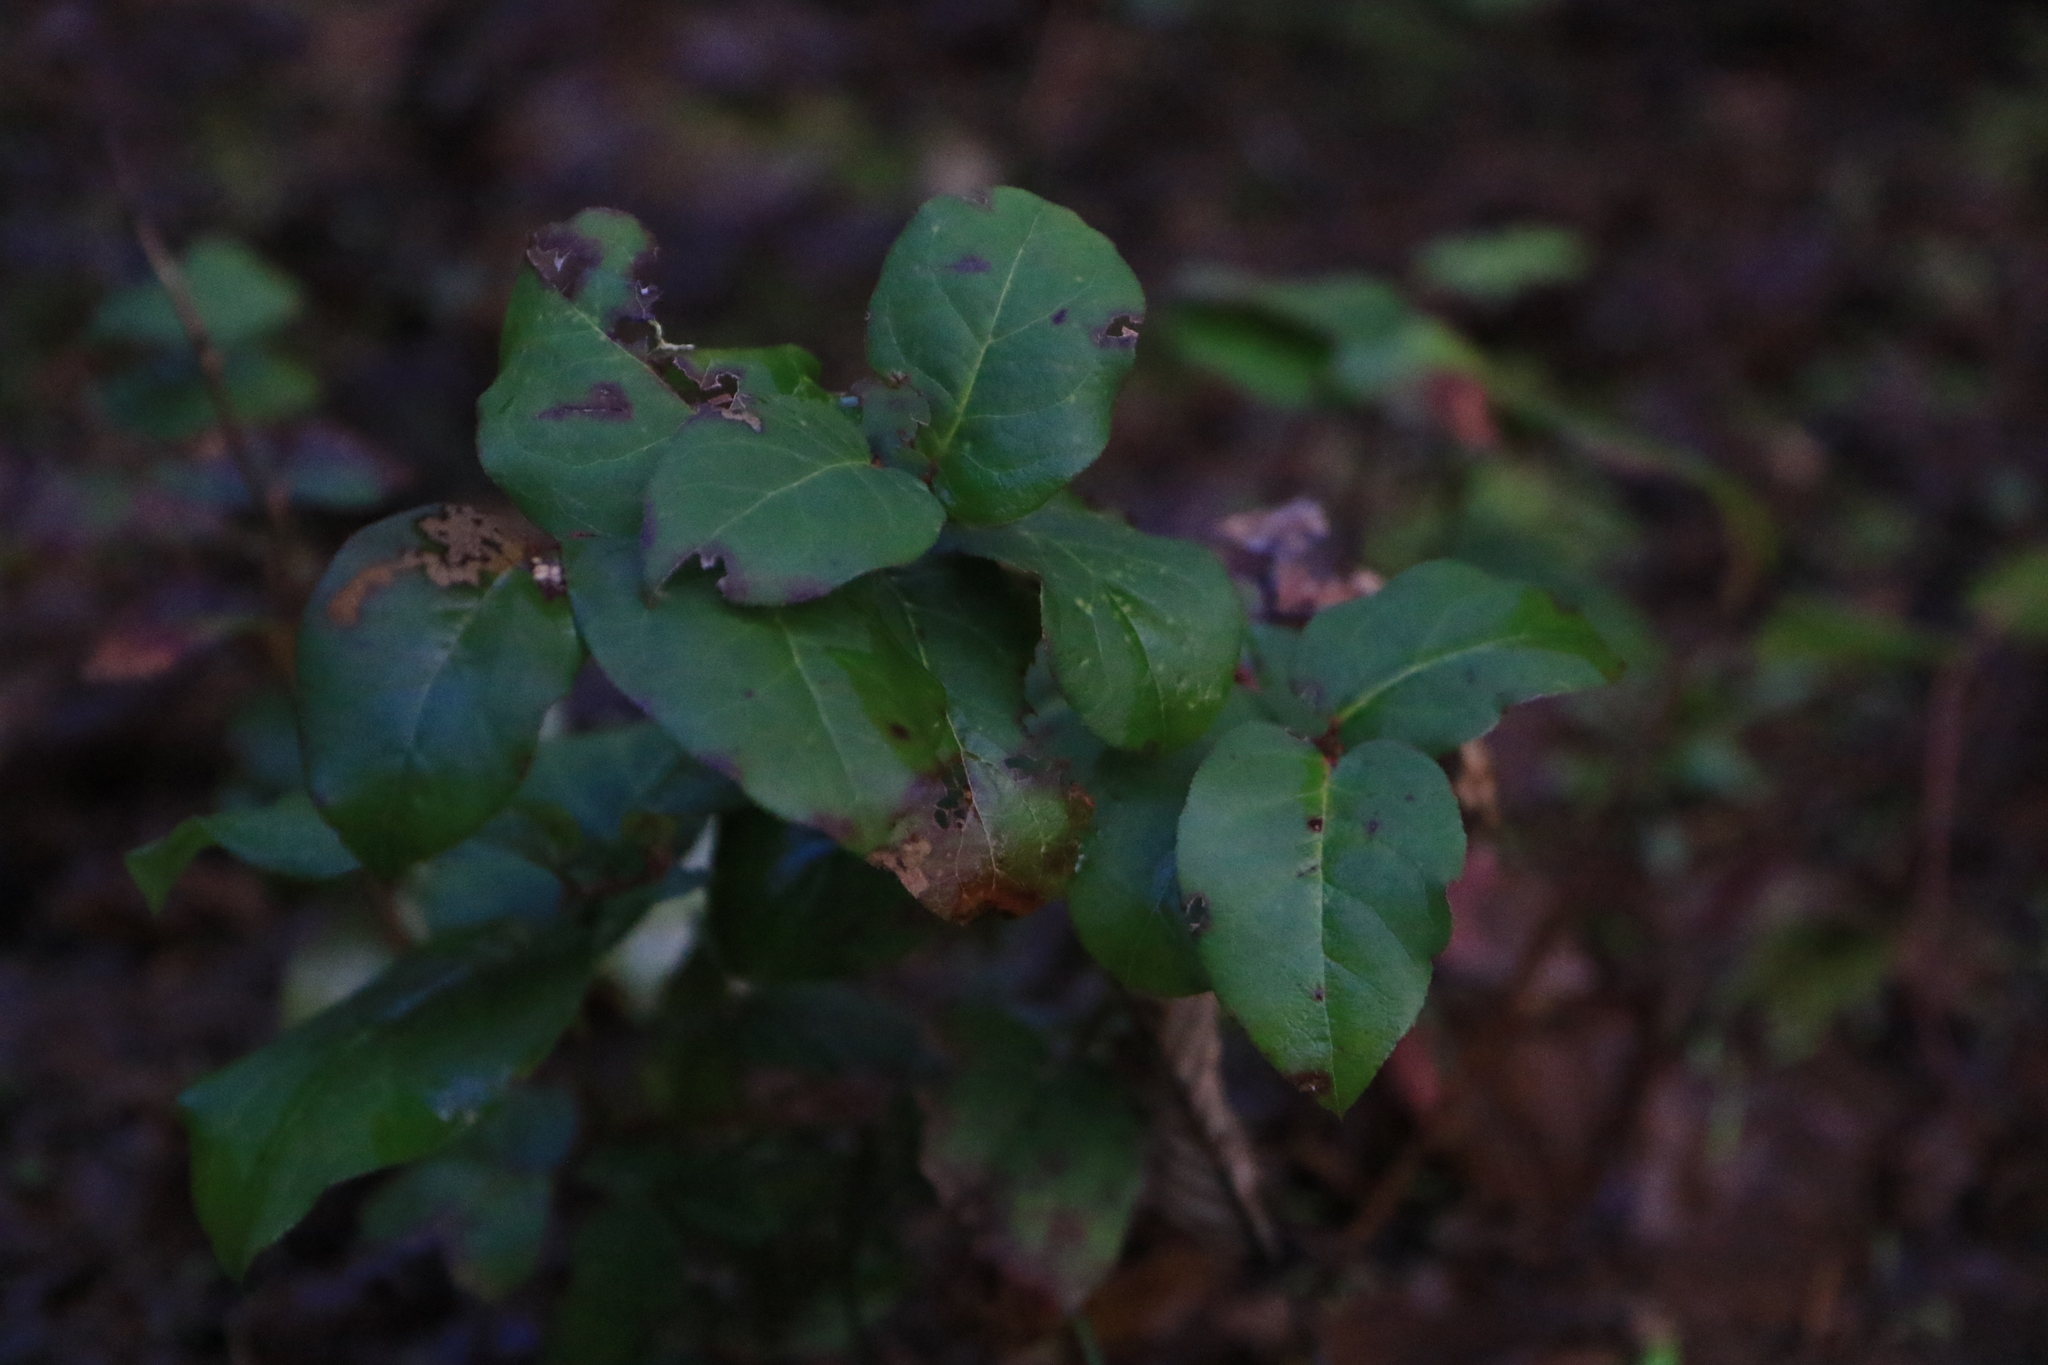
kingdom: Plantae
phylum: Tracheophyta
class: Magnoliopsida
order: Ericales
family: Ericaceae
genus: Gaultheria
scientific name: Gaultheria shallon
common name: Shallon
